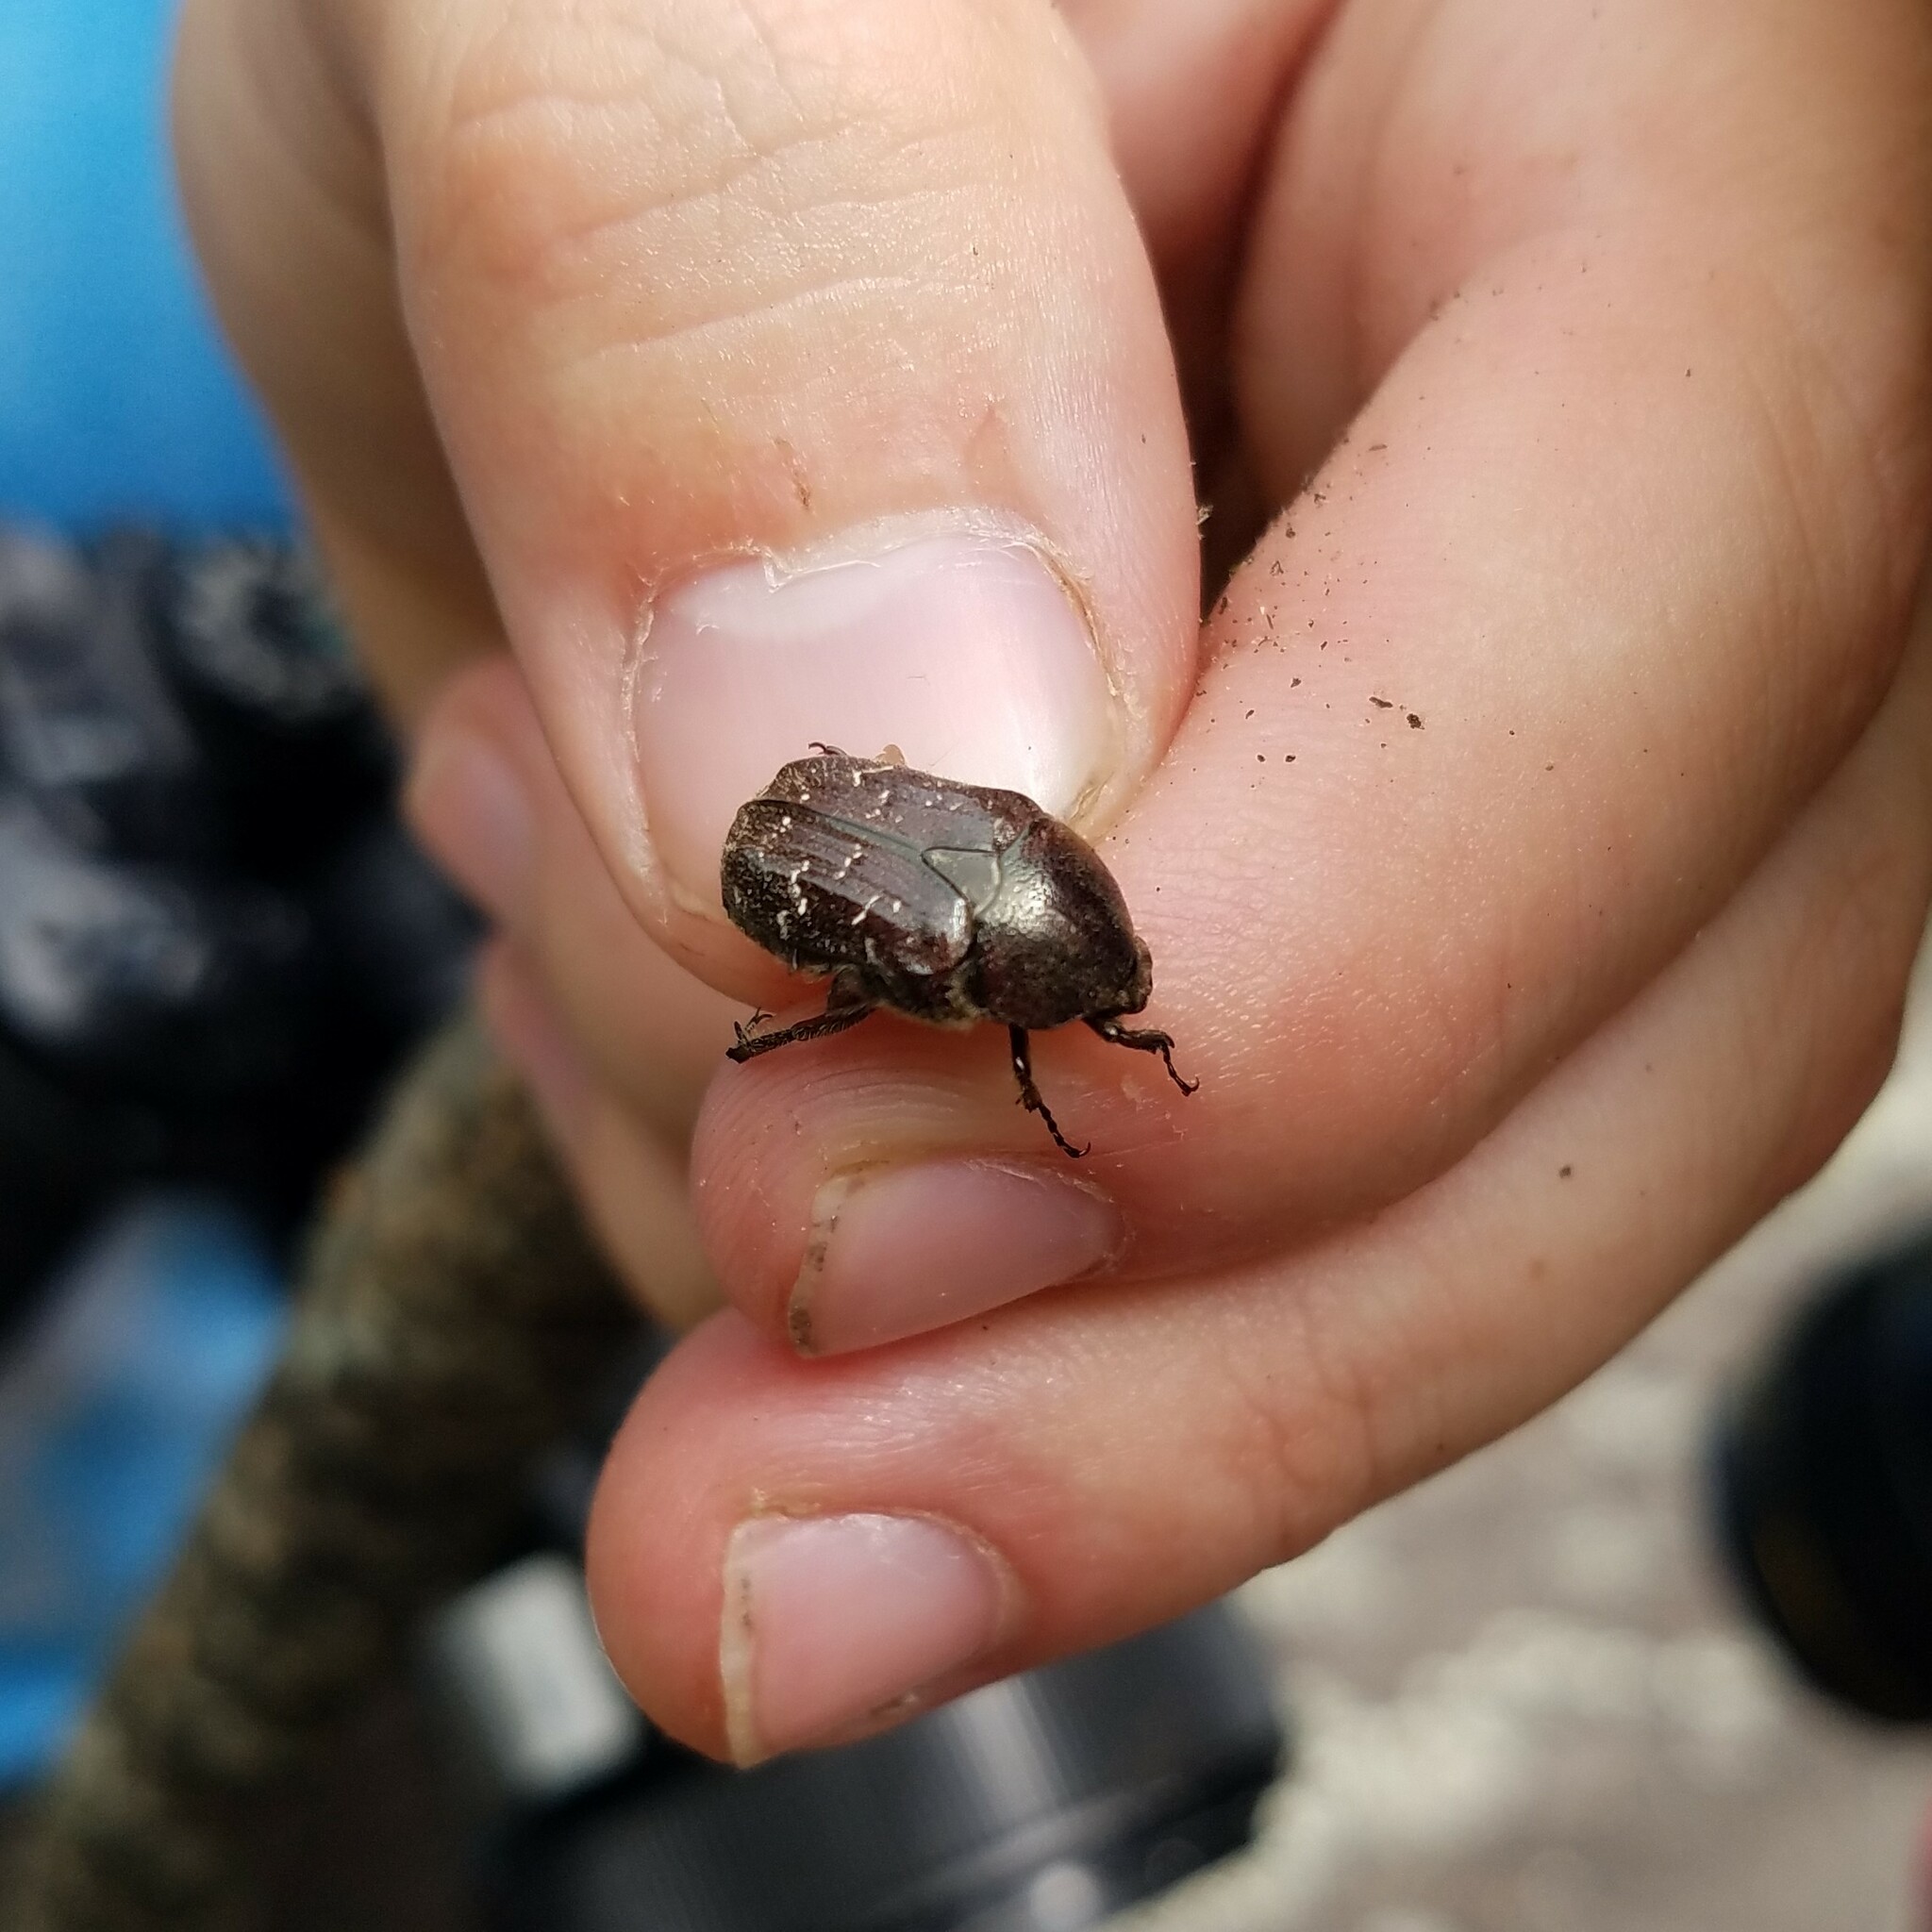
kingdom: Animalia
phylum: Arthropoda
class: Insecta
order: Coleoptera
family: Scarabaeidae
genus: Euphoria
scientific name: Euphoria sepulcralis
